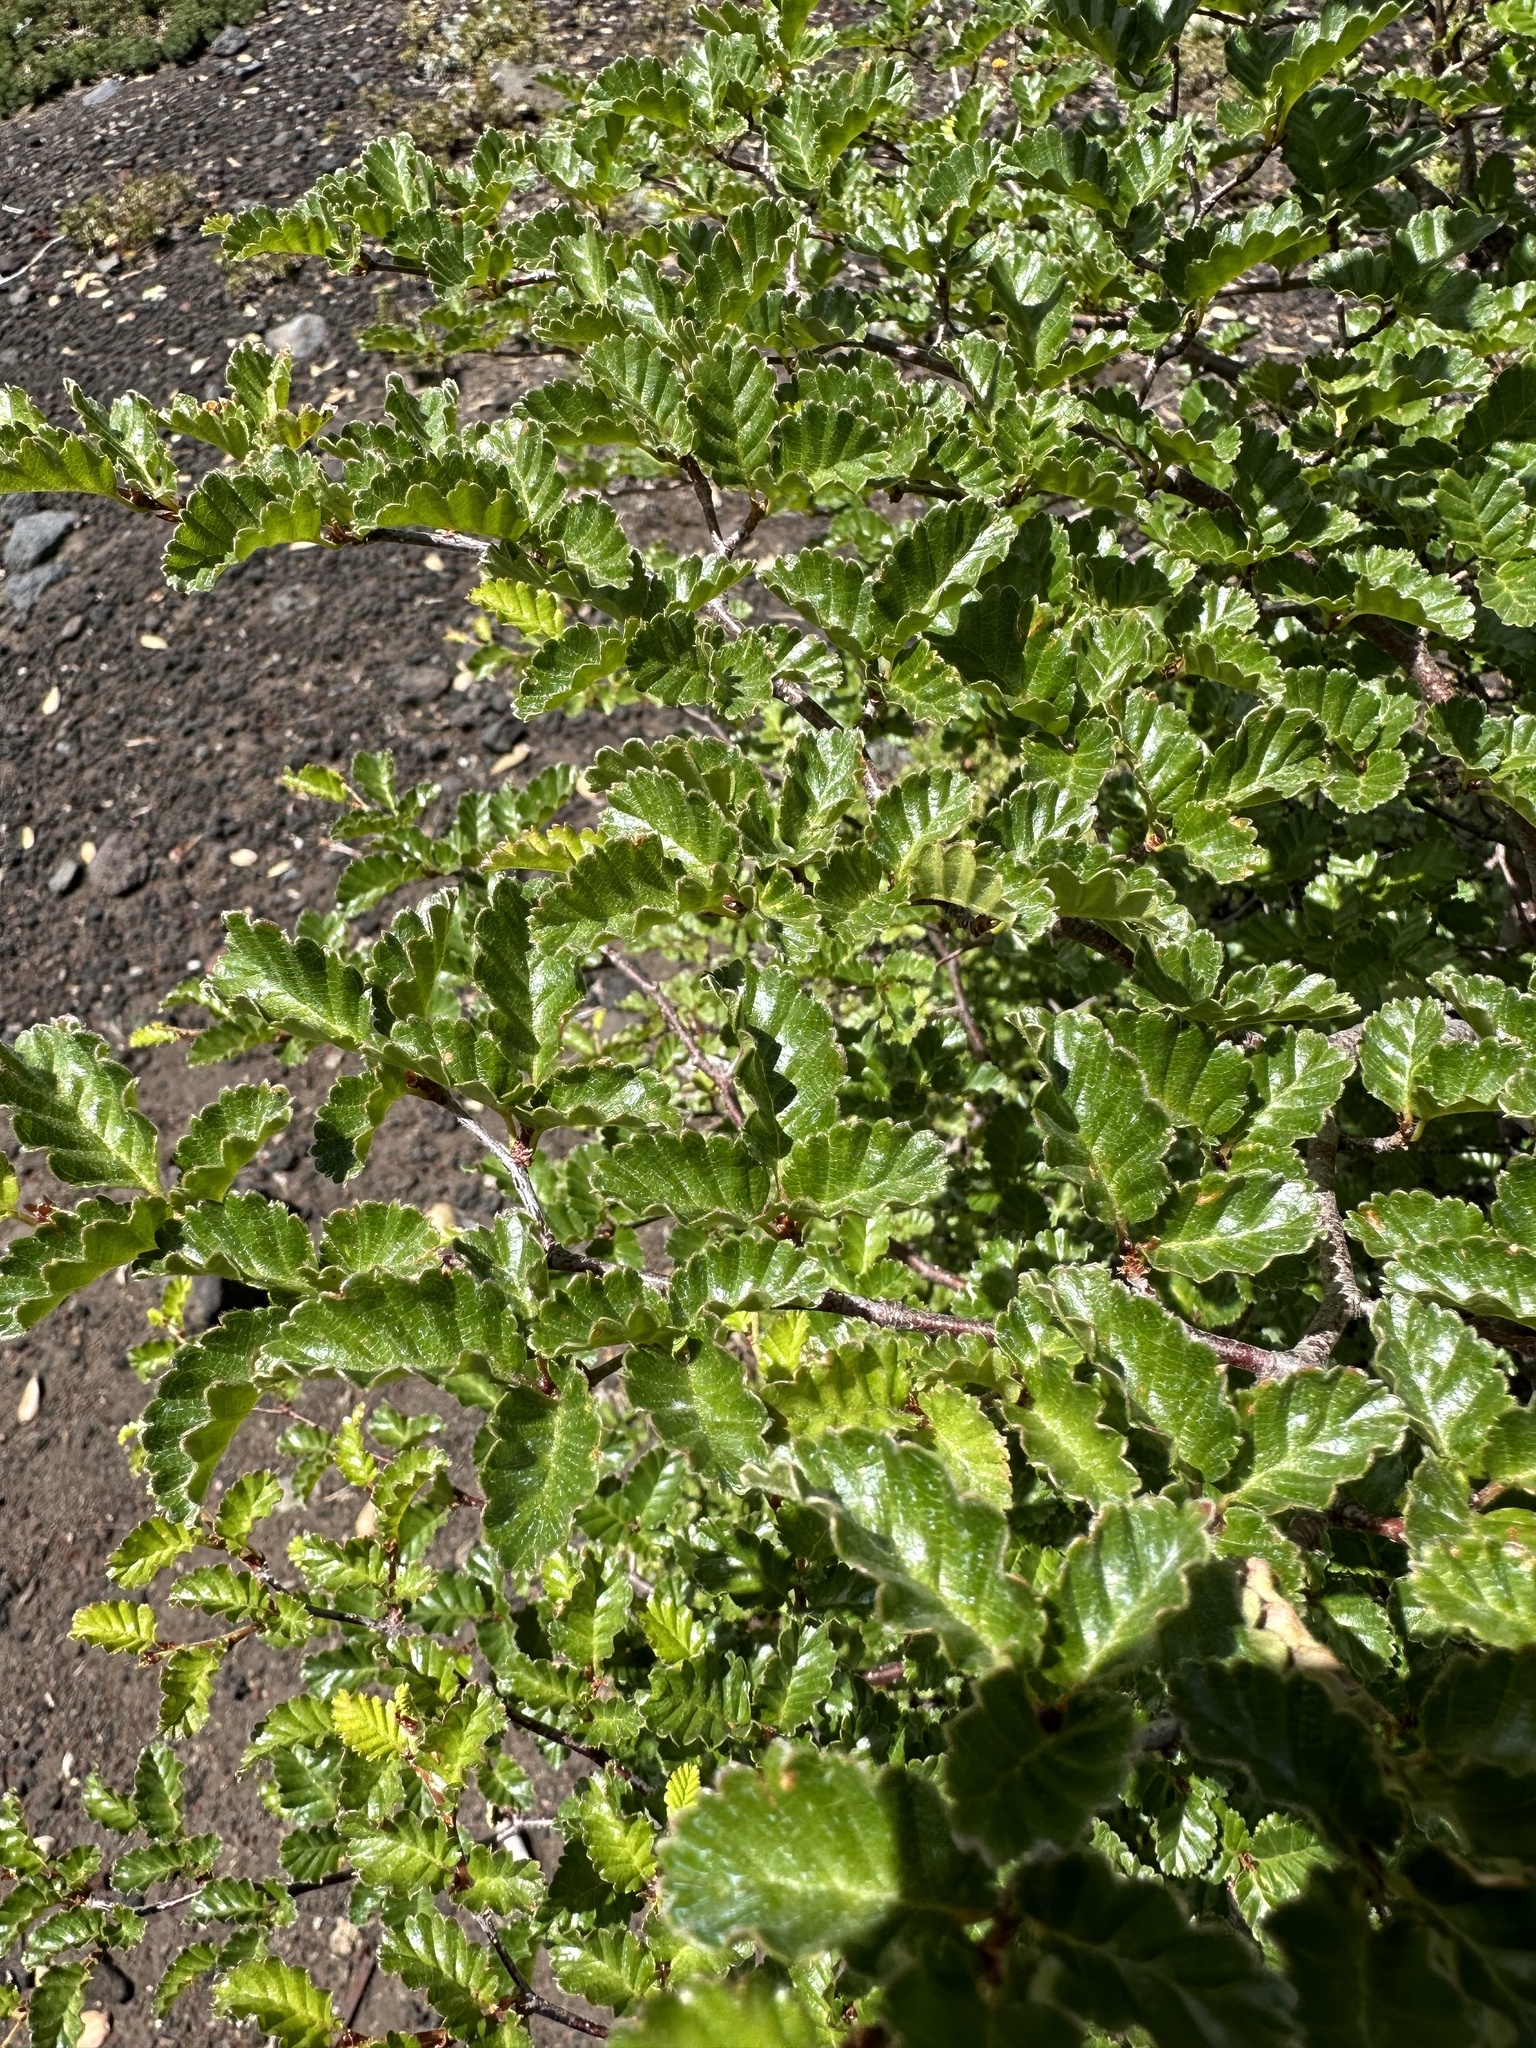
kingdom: Plantae
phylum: Tracheophyta
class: Magnoliopsida
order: Fagales
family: Nothofagaceae
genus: Nothofagus
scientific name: Nothofagus pumilio
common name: Lenga beech
